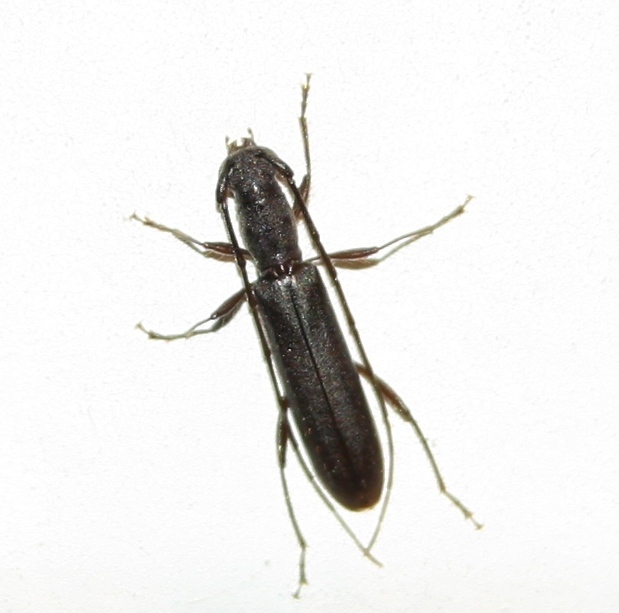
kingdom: Animalia
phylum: Arthropoda
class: Insecta
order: Coleoptera
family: Cerambycidae
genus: Heterachthes
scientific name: Heterachthes ebenus
